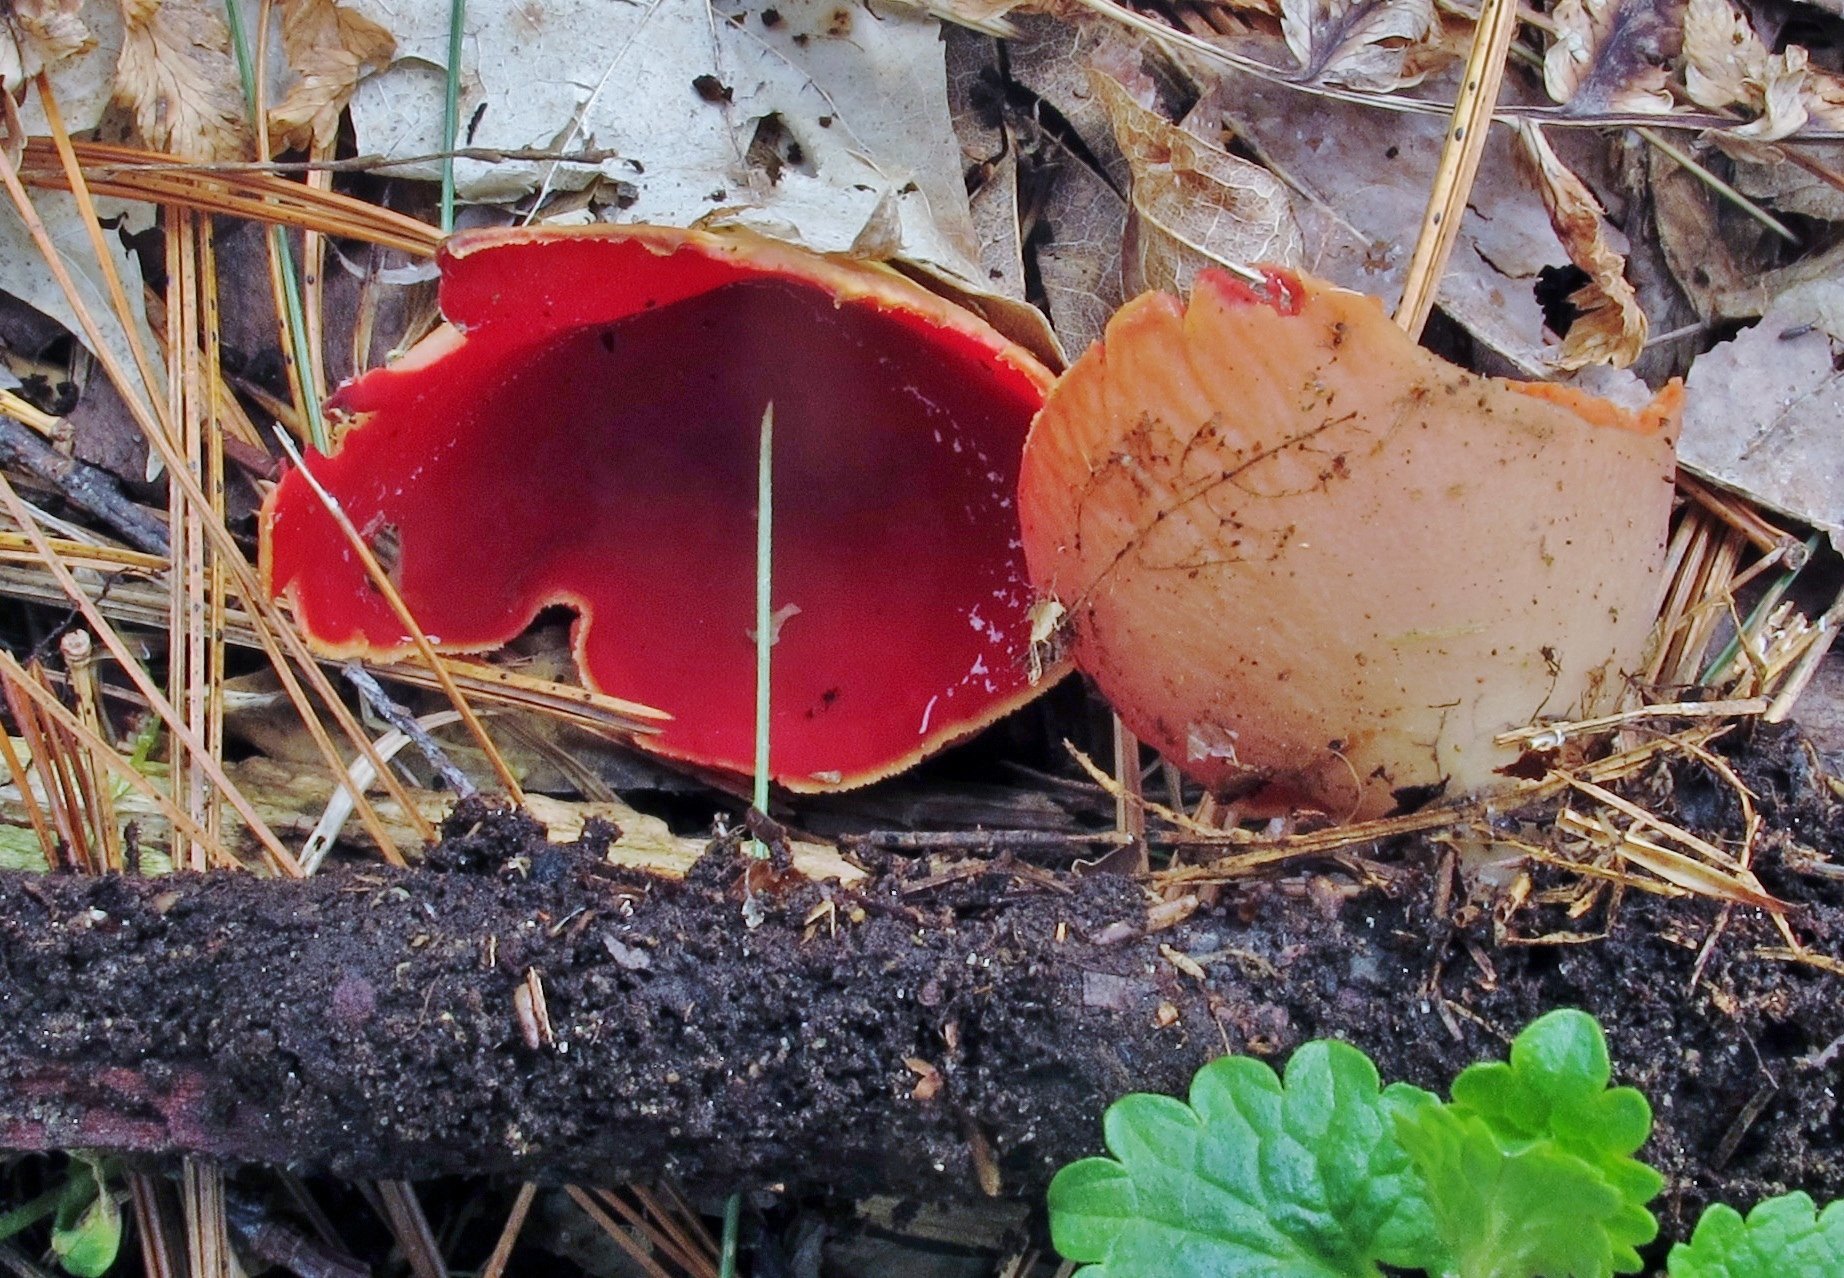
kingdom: Fungi
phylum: Ascomycota
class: Pezizomycetes
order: Pezizales
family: Sarcoscyphaceae
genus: Sarcoscypha
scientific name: Sarcoscypha austriaca
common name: Scarlet elfcup
